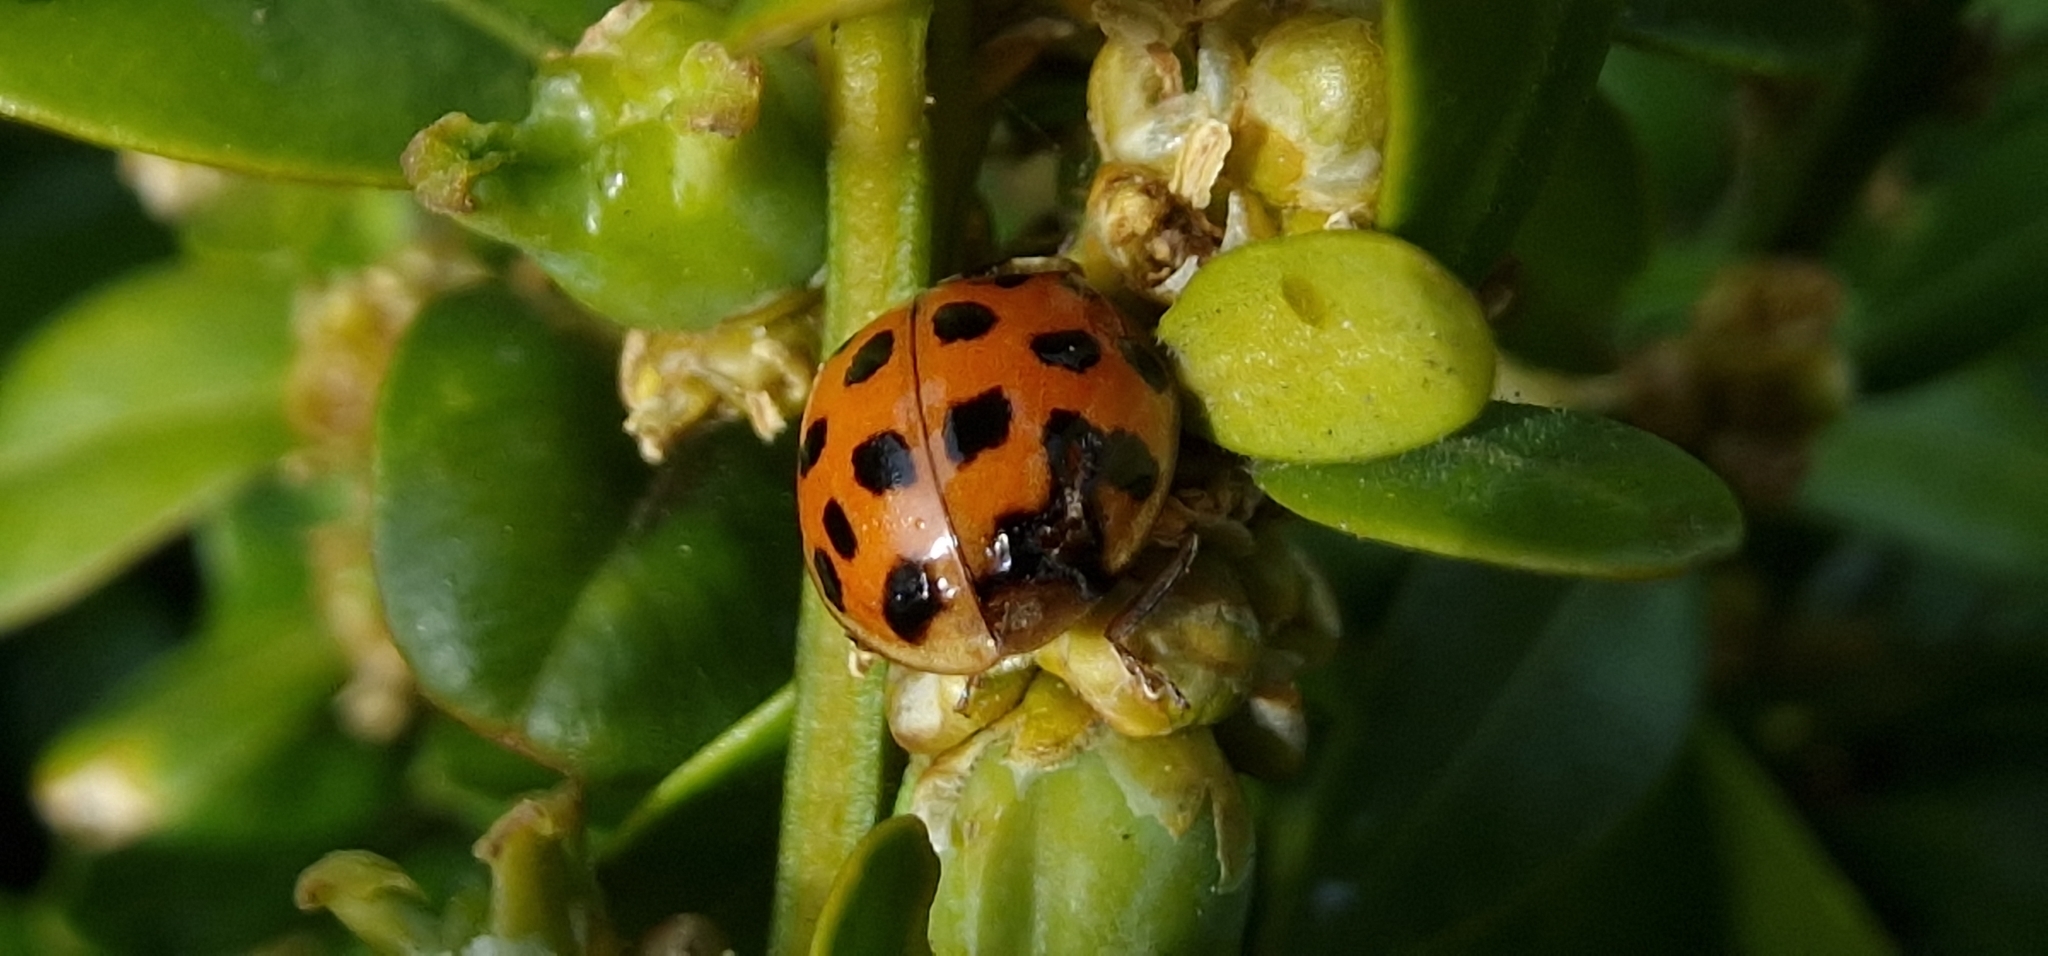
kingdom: Animalia
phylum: Arthropoda
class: Insecta
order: Coleoptera
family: Coccinellidae
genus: Harmonia
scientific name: Harmonia axyridis
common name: Harlequin ladybird
